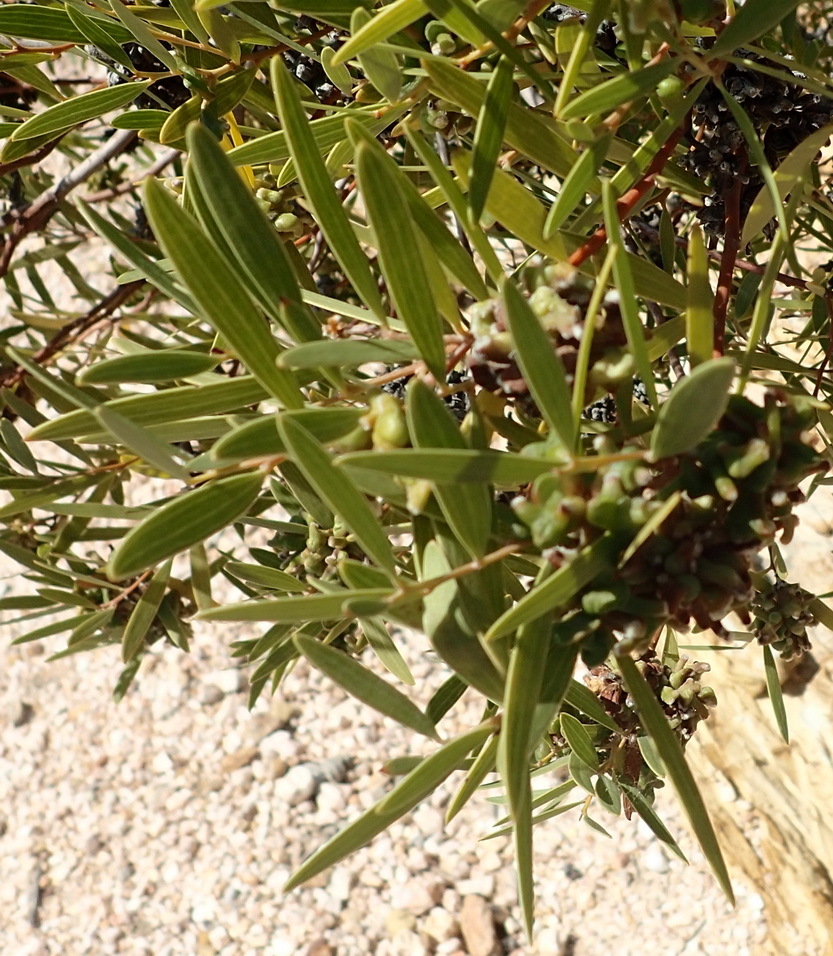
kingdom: Plantae
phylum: Tracheophyta
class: Magnoliopsida
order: Fabales
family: Fabaceae
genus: Acacia
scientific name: Acacia cyclops
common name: Coastal wattle
